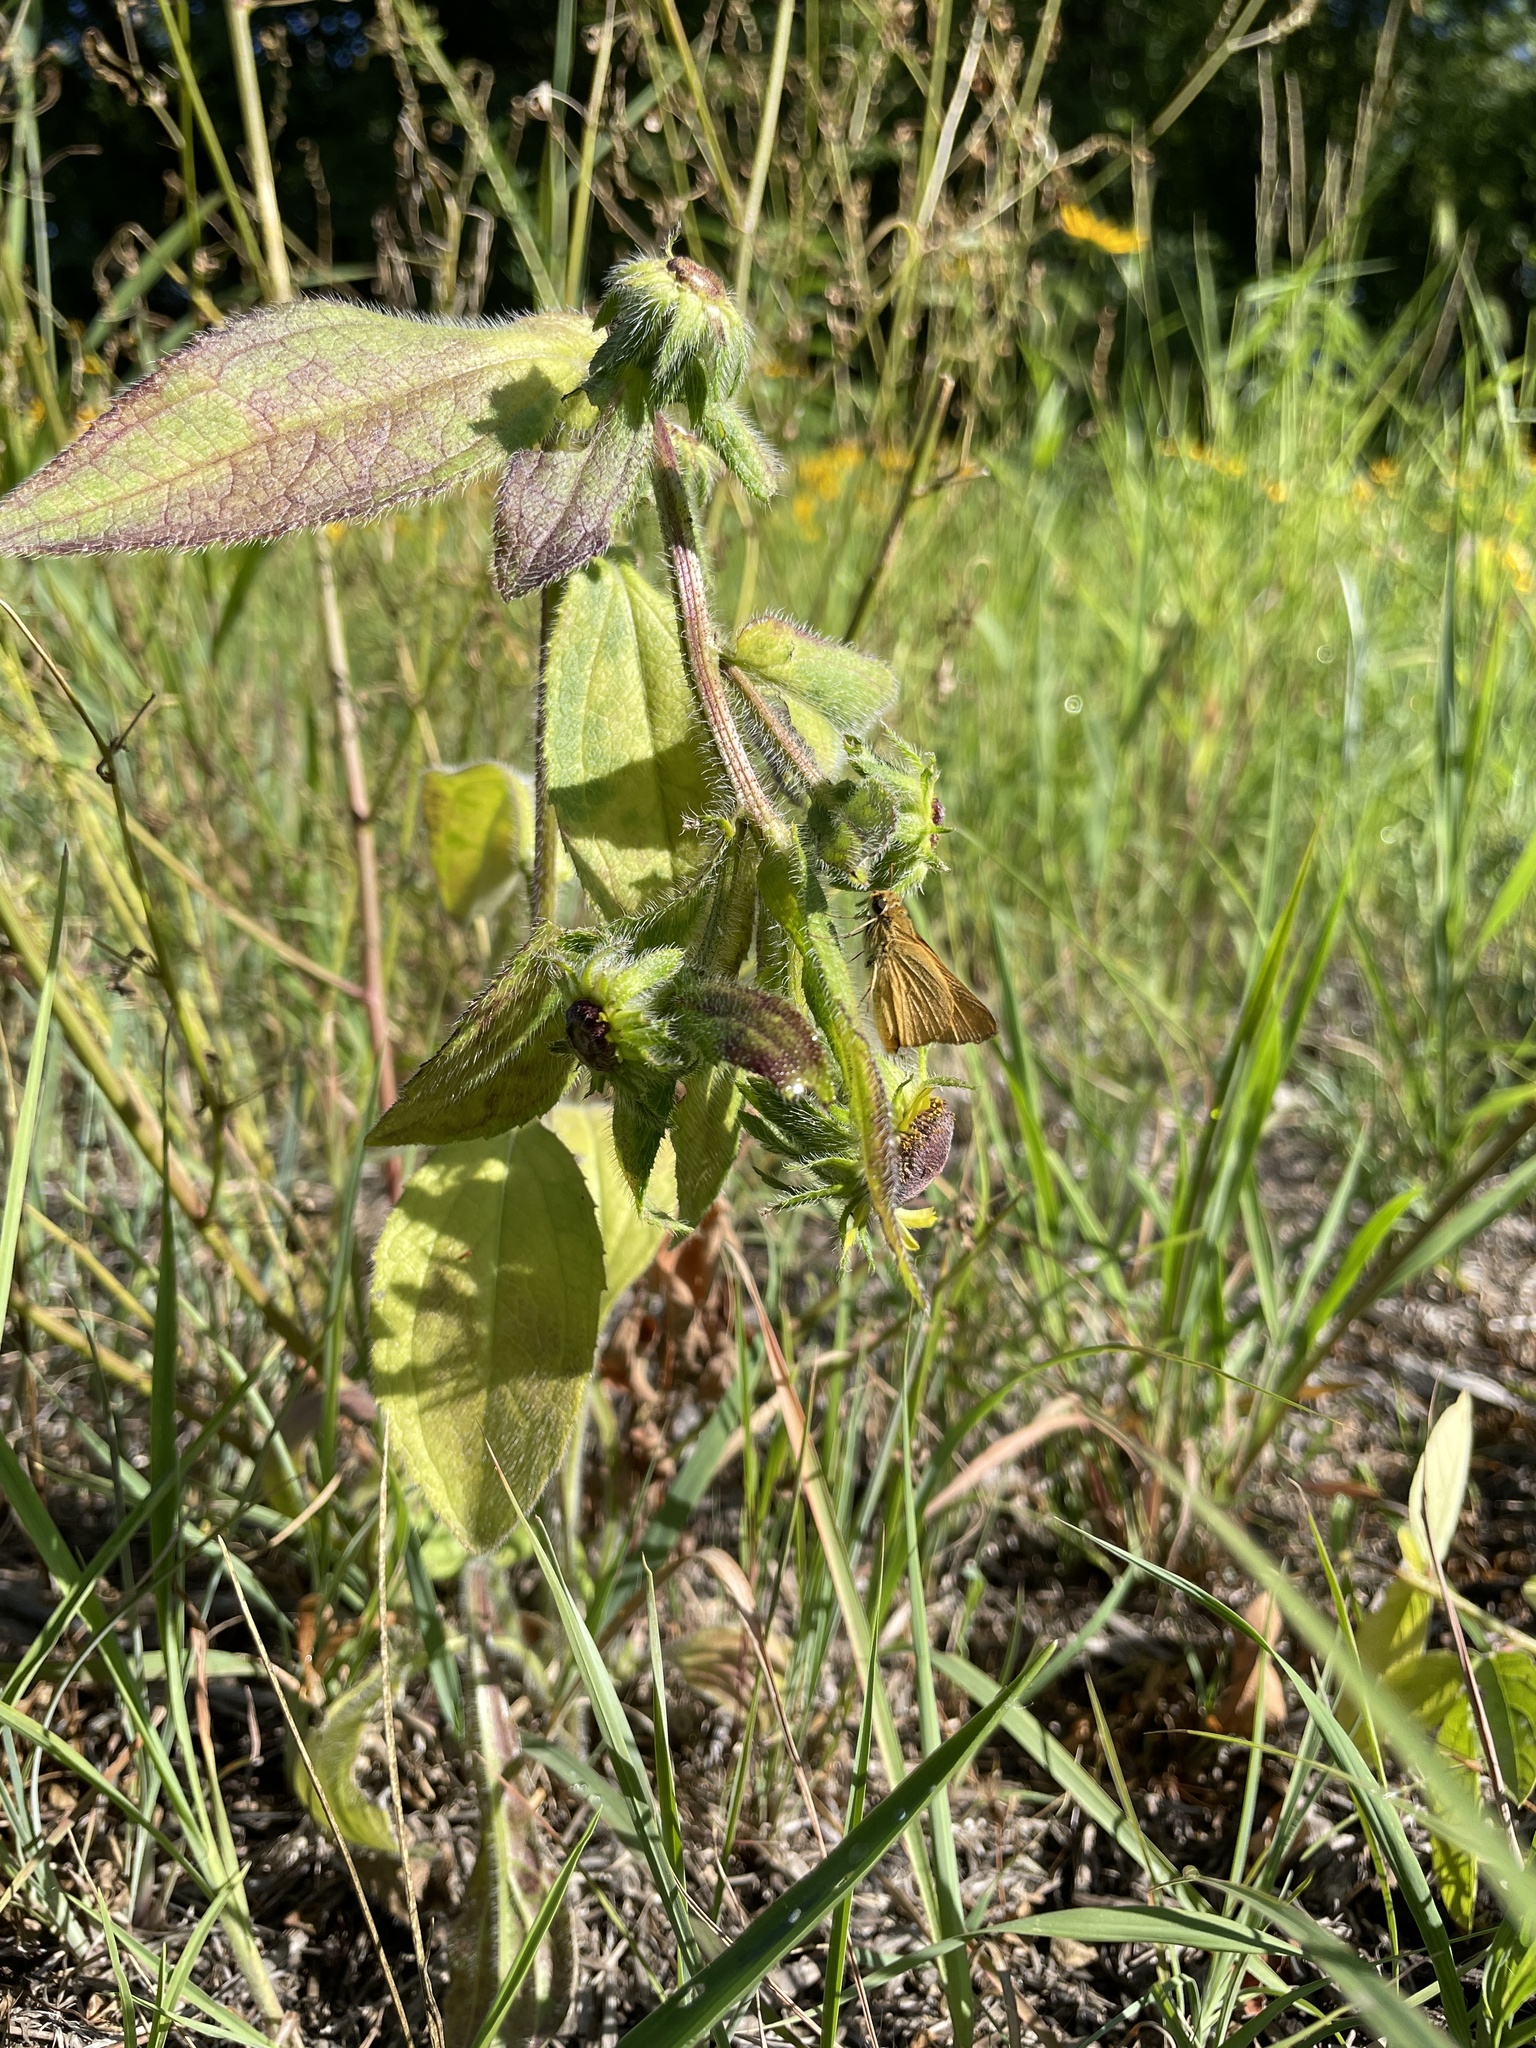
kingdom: Animalia
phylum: Arthropoda
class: Insecta
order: Lepidoptera
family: Hesperiidae
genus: Atrytone
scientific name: Atrytone delaware
